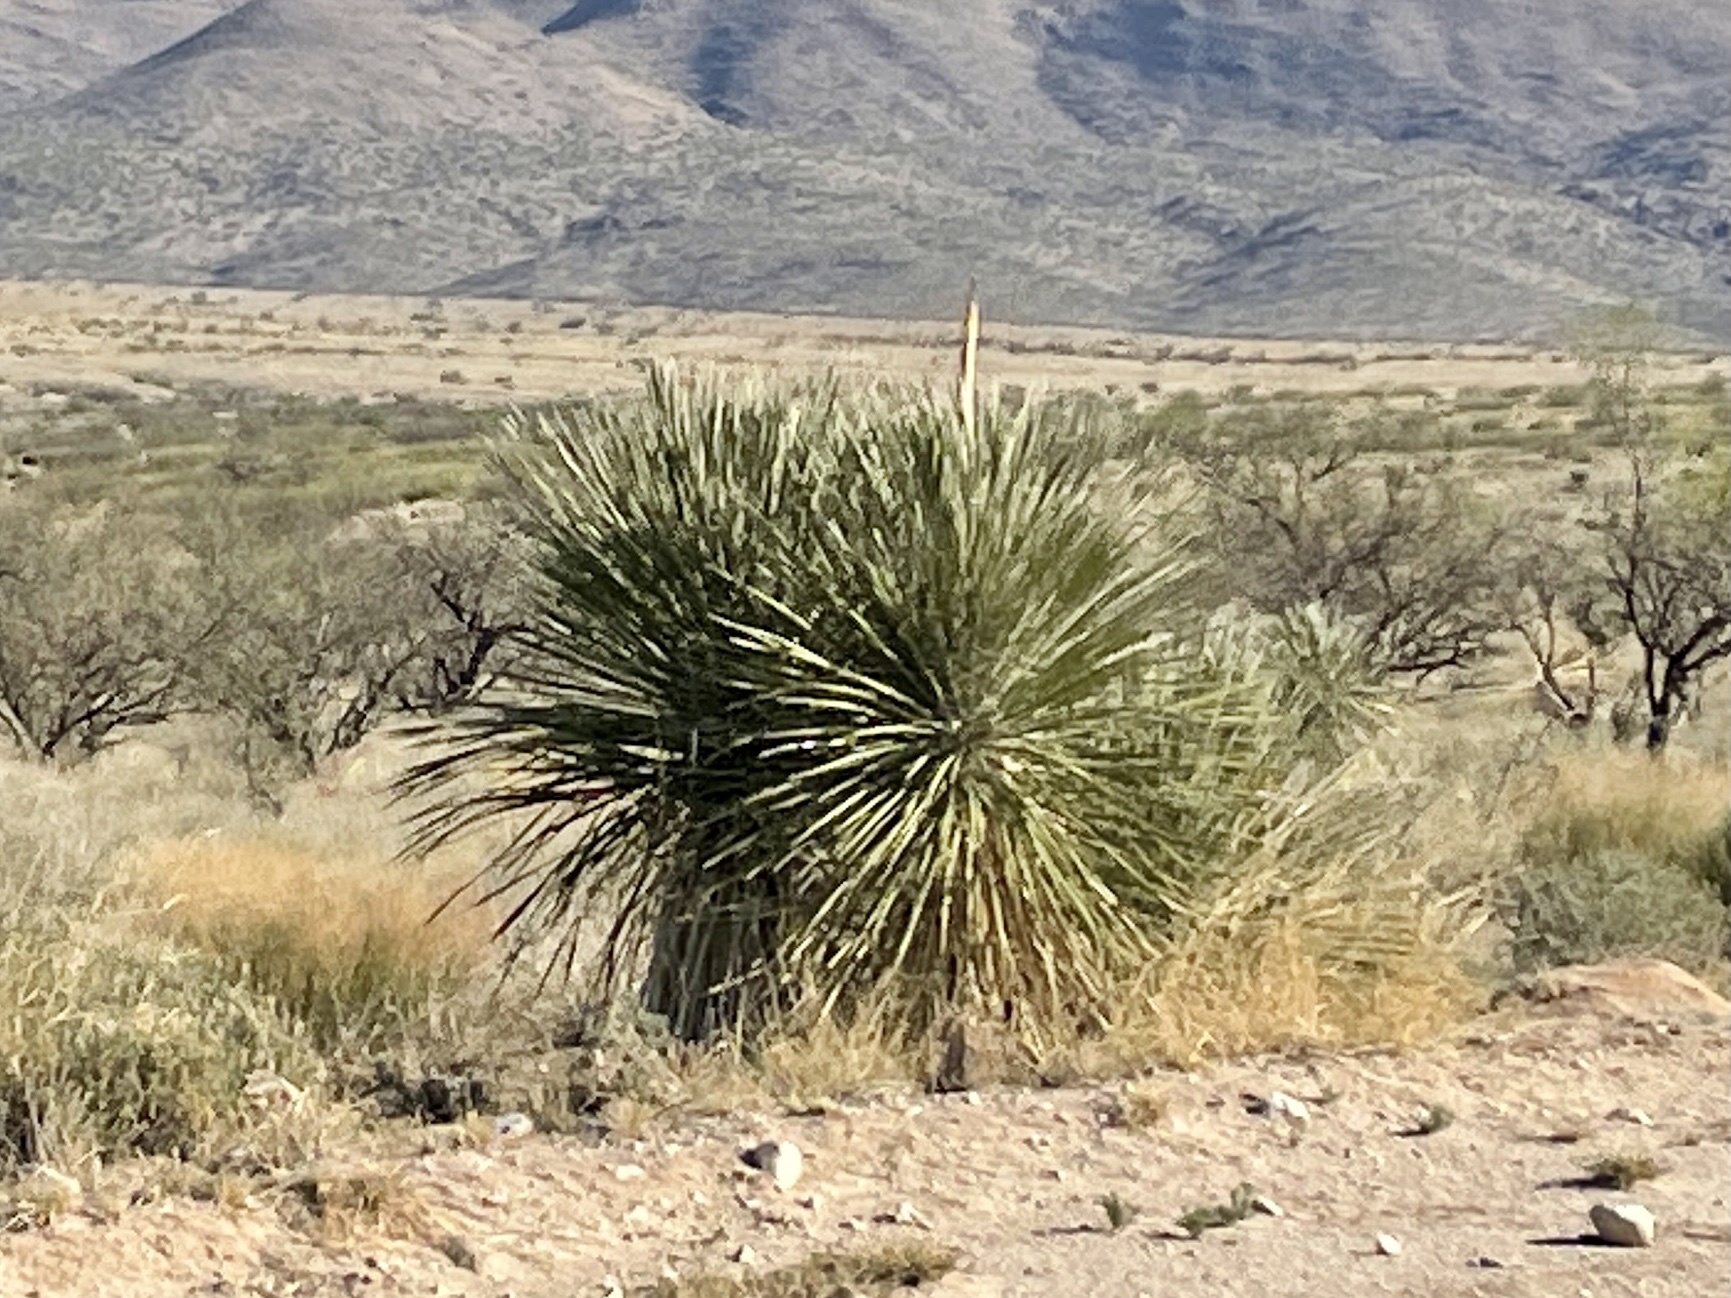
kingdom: Plantae
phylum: Tracheophyta
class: Liliopsida
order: Asparagales
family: Asparagaceae
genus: Yucca
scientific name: Yucca elata
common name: Palmella
